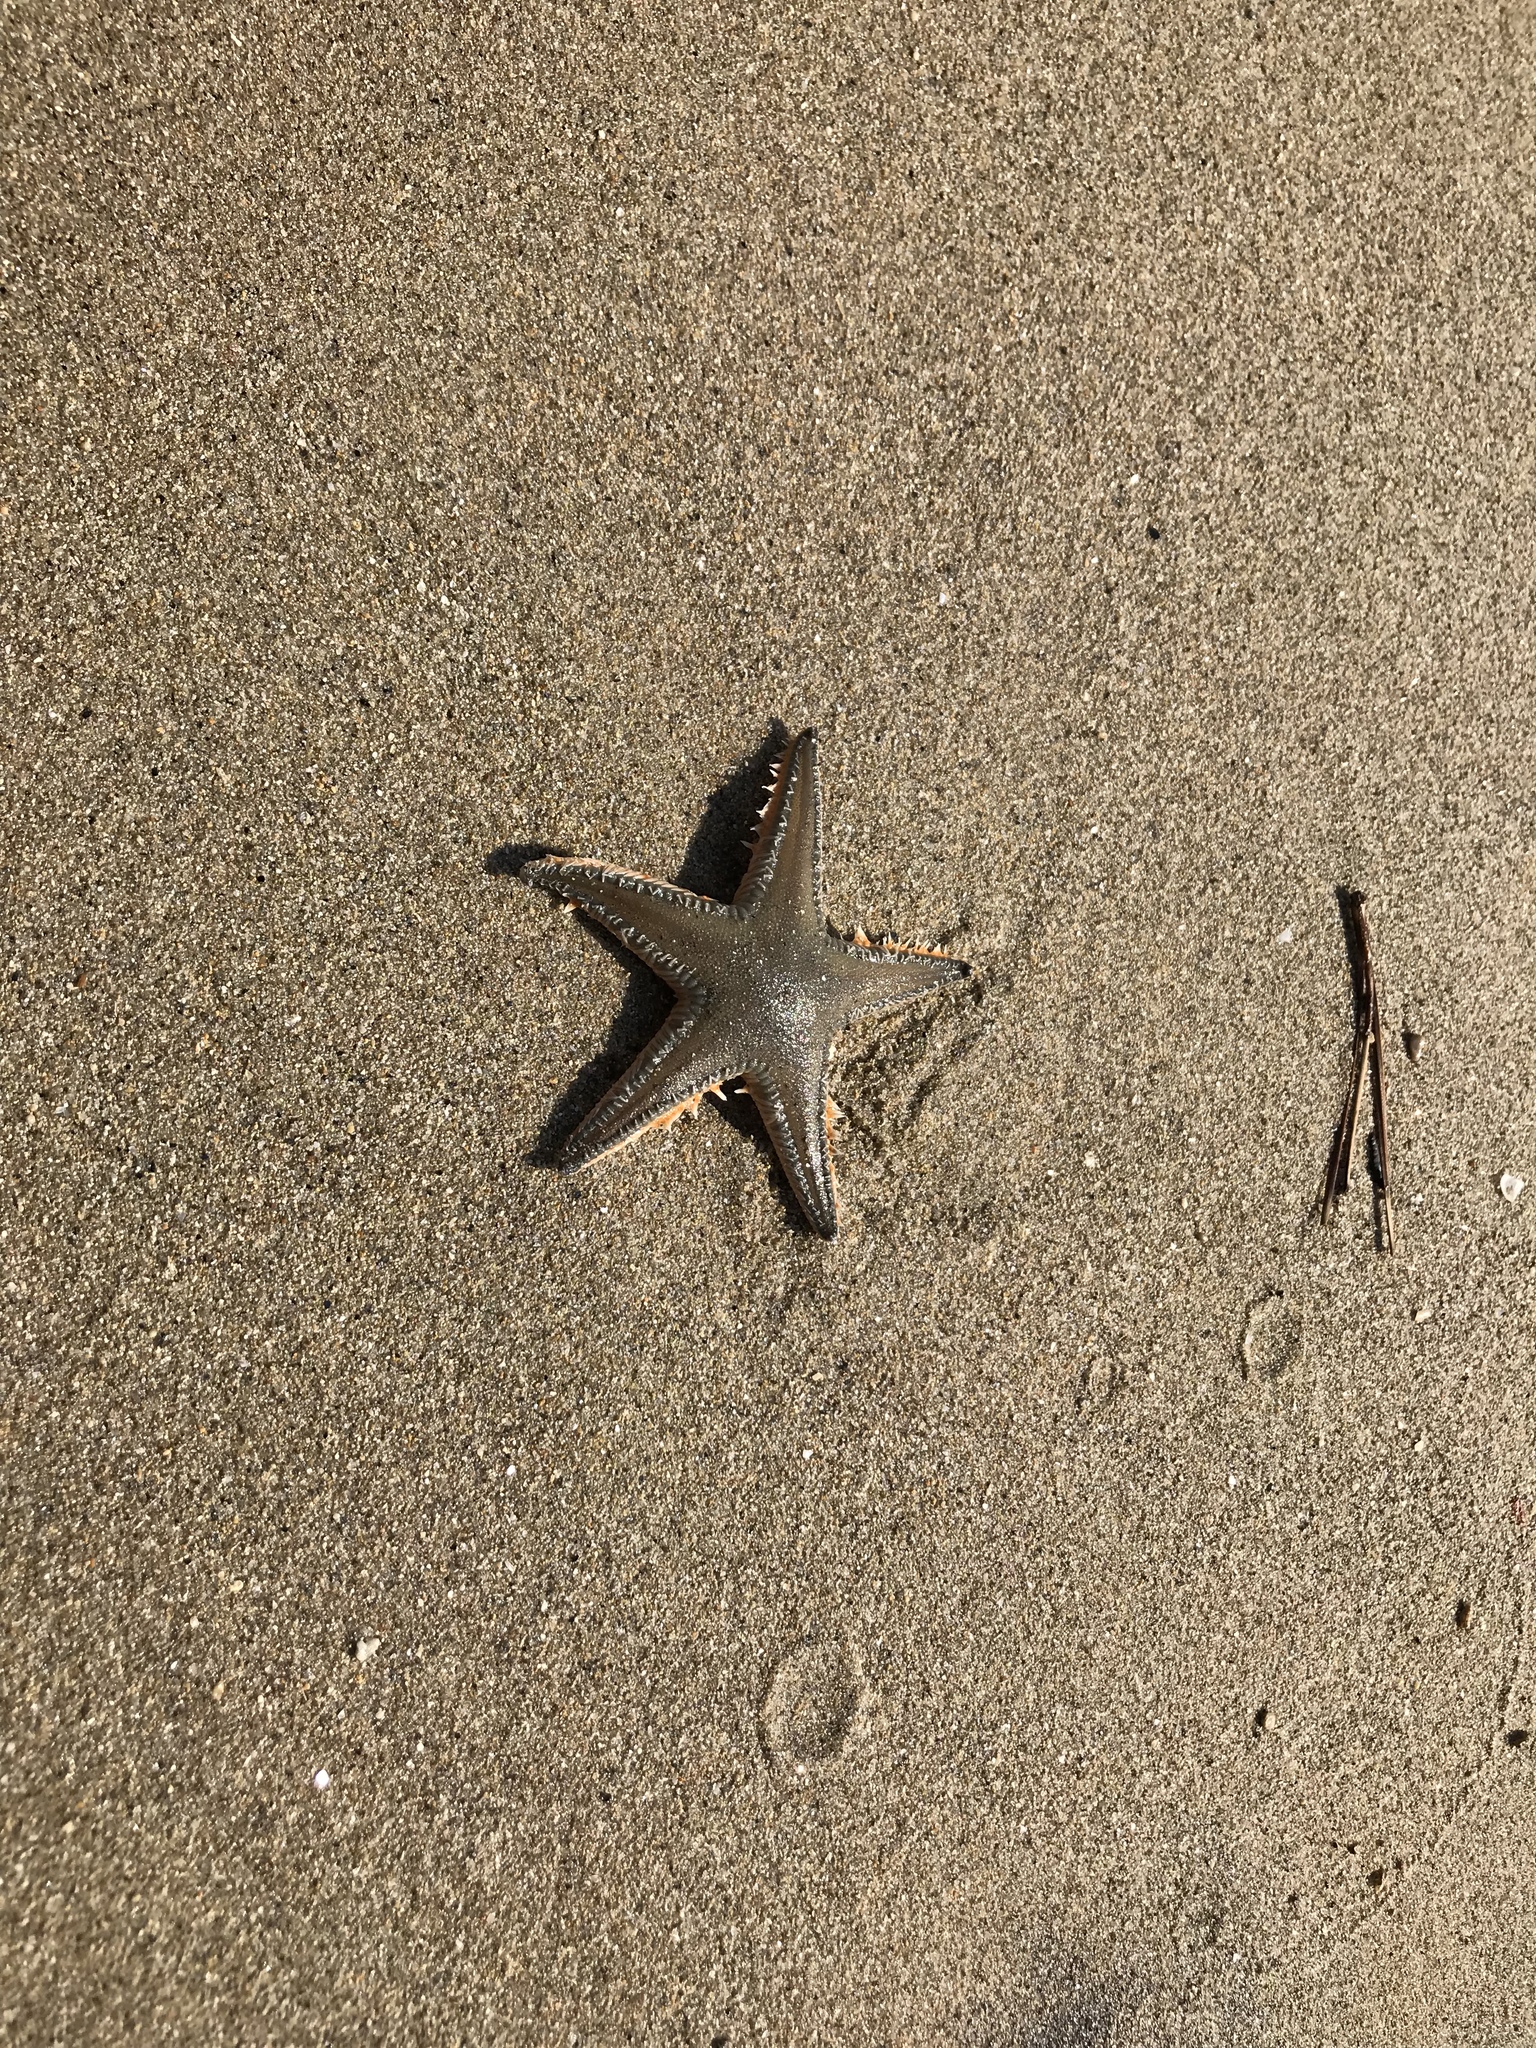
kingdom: Animalia
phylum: Echinodermata
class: Asteroidea
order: Paxillosida
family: Astropectinidae
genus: Astropecten
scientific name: Astropecten jonstoni
